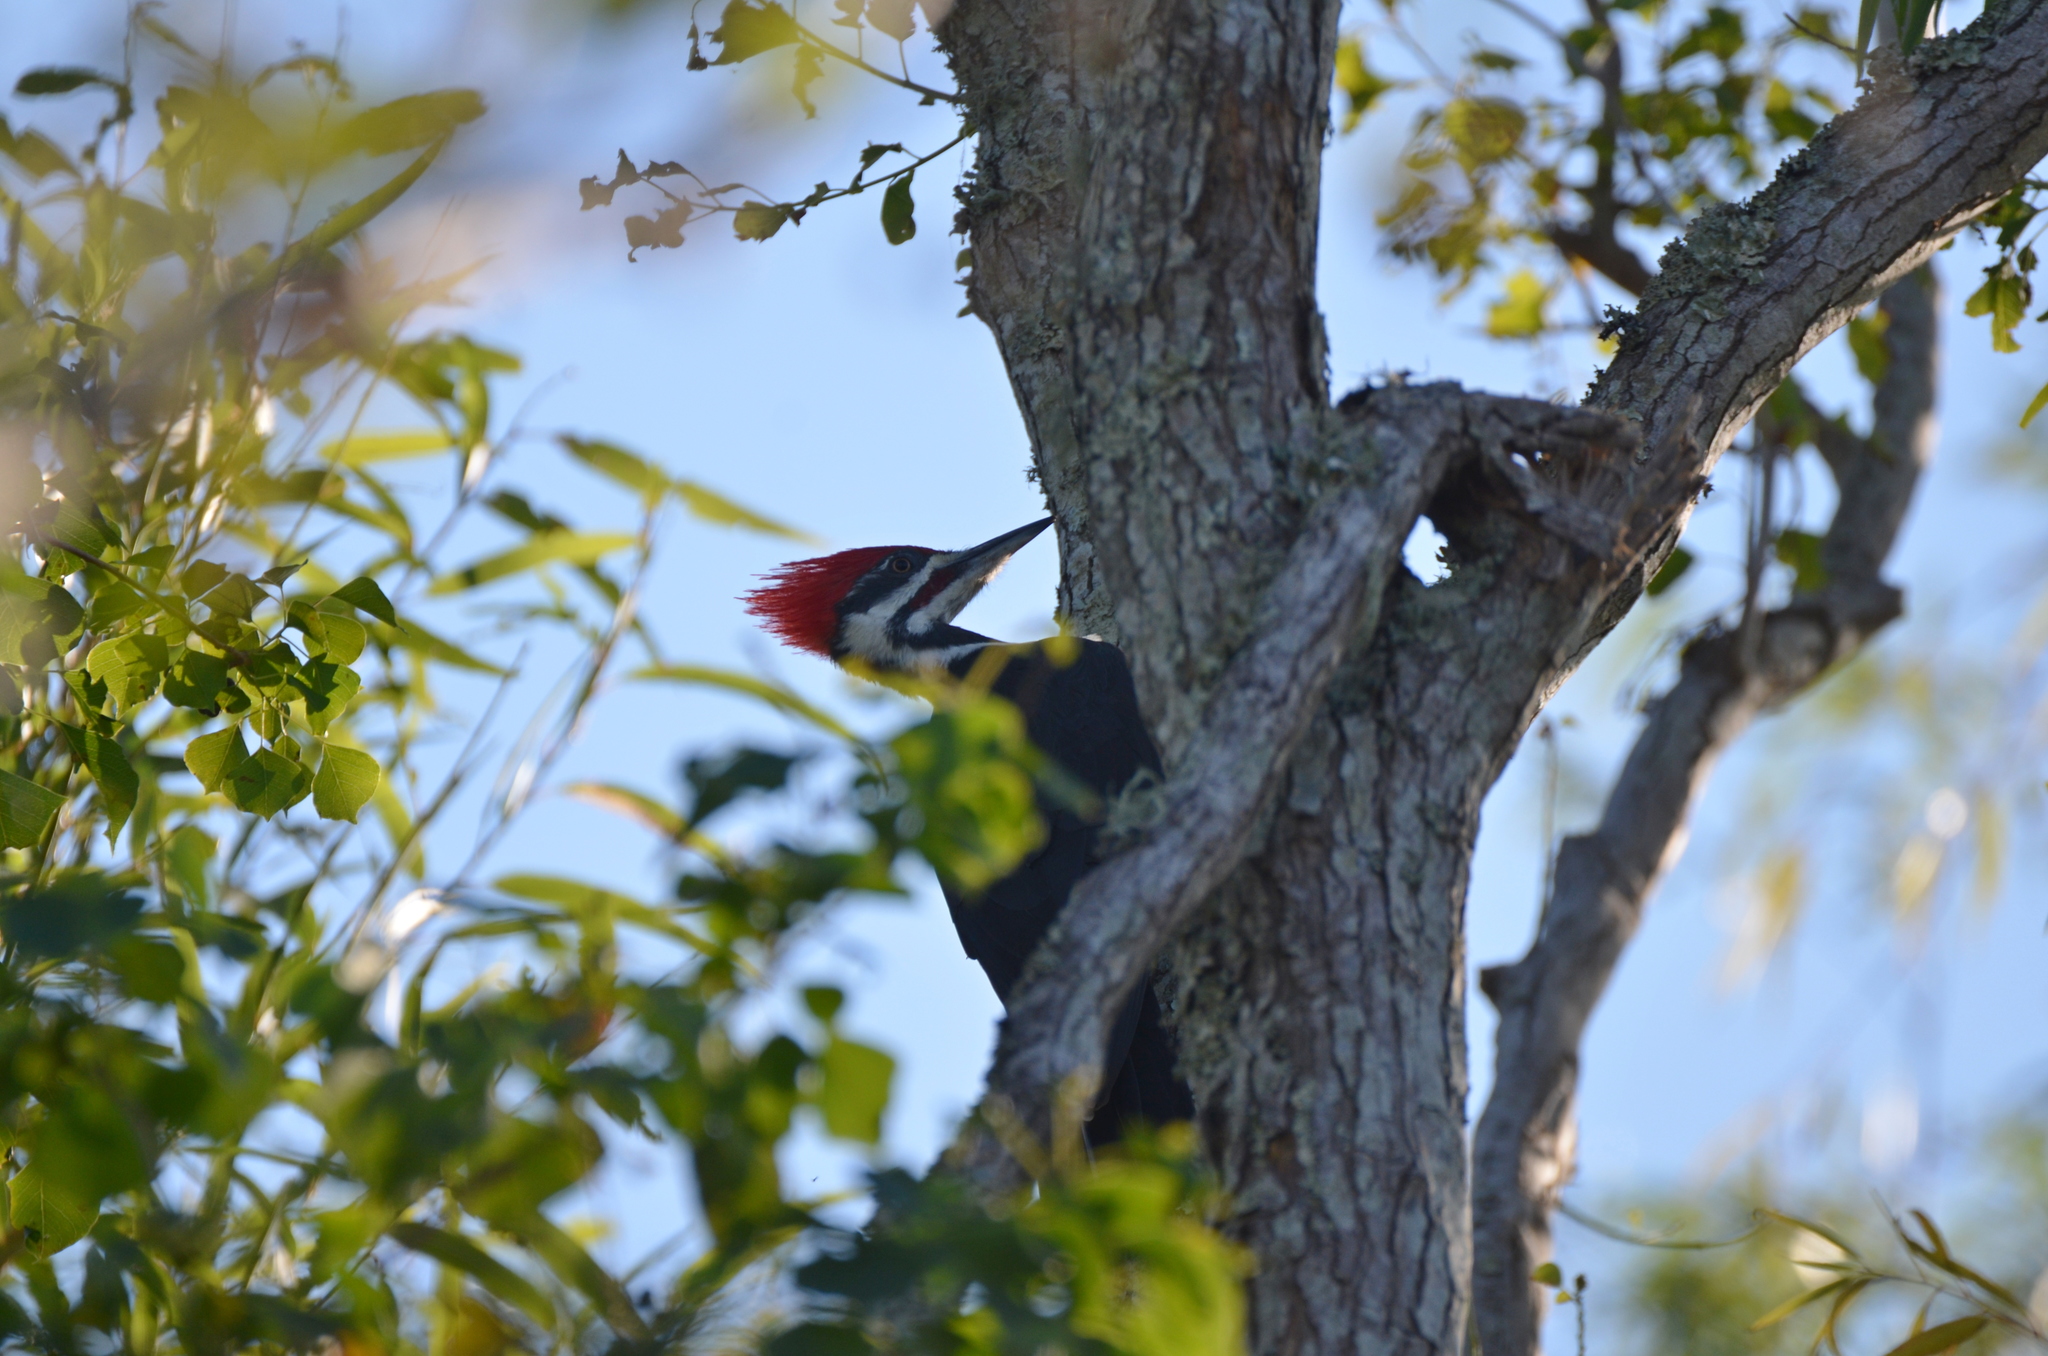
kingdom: Animalia
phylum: Chordata
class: Aves
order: Piciformes
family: Picidae
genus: Dryocopus
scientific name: Dryocopus pileatus
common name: Pileated woodpecker
